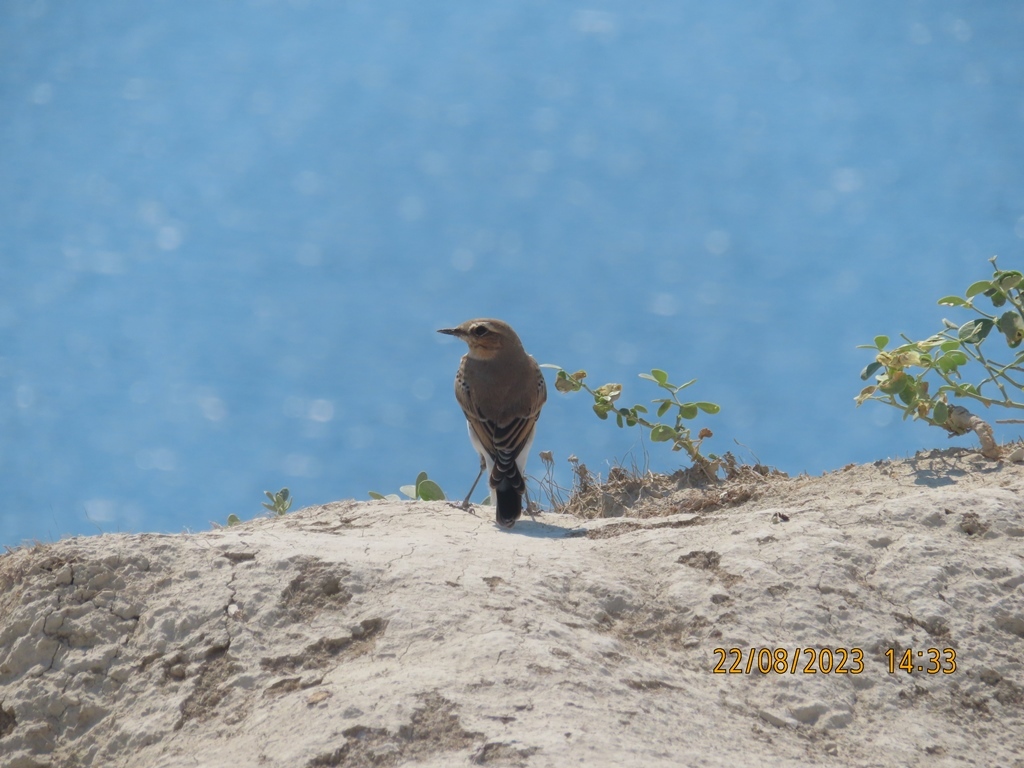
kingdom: Animalia
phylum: Chordata
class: Aves
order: Passeriformes
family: Muscicapidae
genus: Oenanthe
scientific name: Oenanthe oenanthe
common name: Northern wheatear
